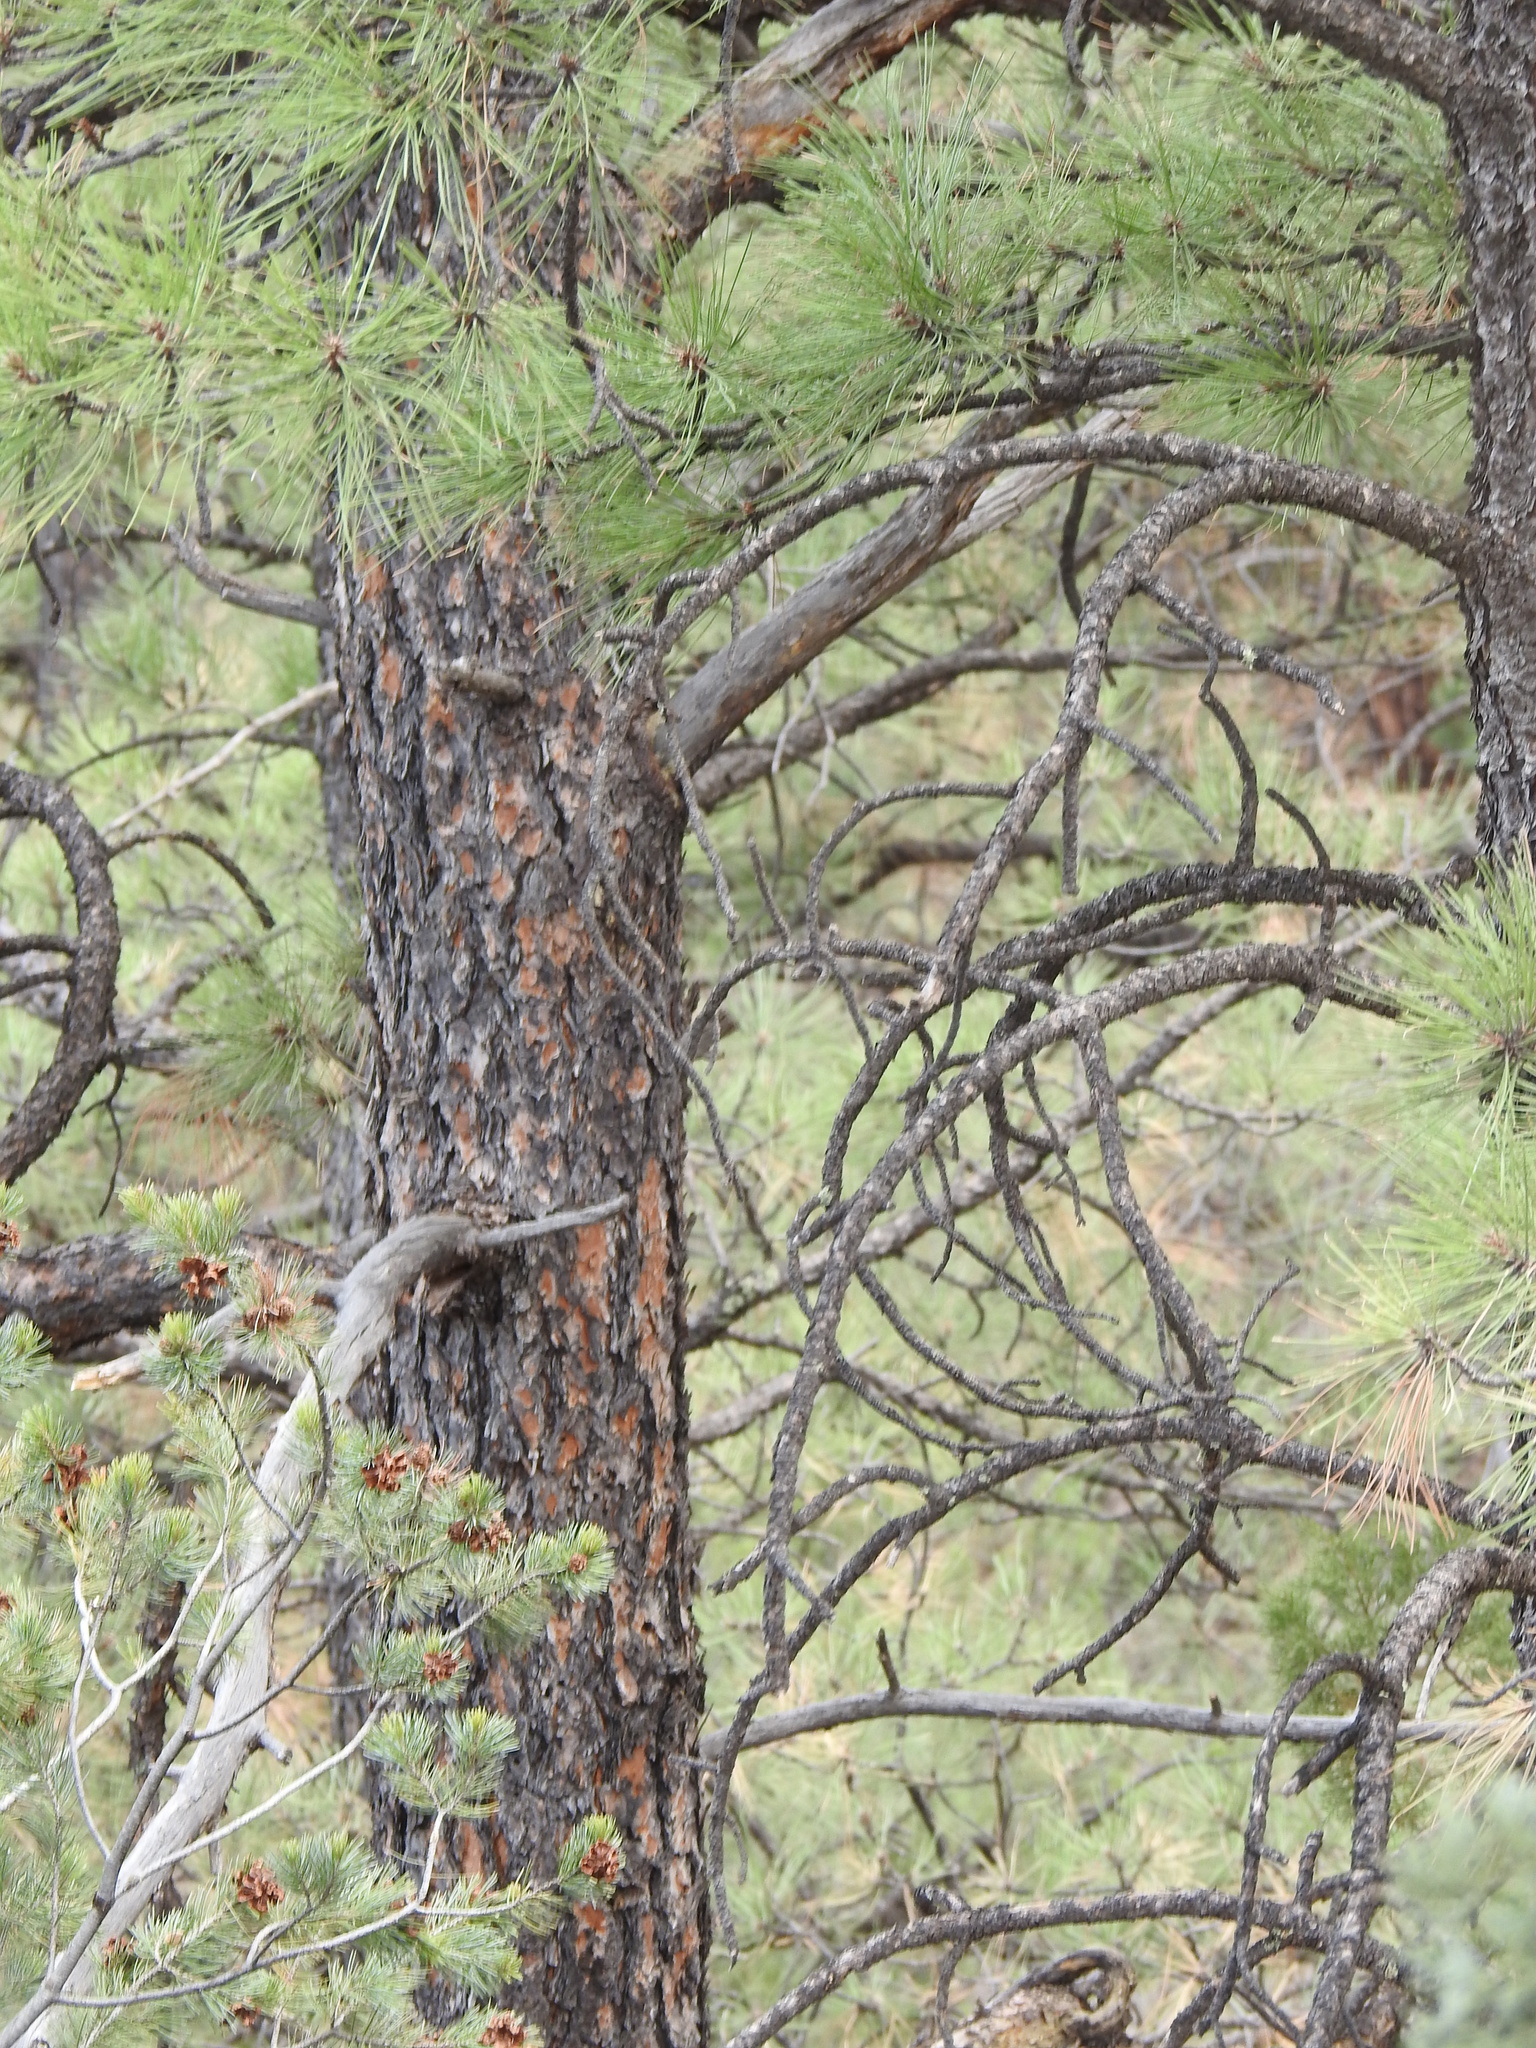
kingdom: Plantae
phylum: Tracheophyta
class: Pinopsida
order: Pinales
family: Pinaceae
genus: Pinus
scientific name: Pinus ponderosa
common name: Western yellow-pine
